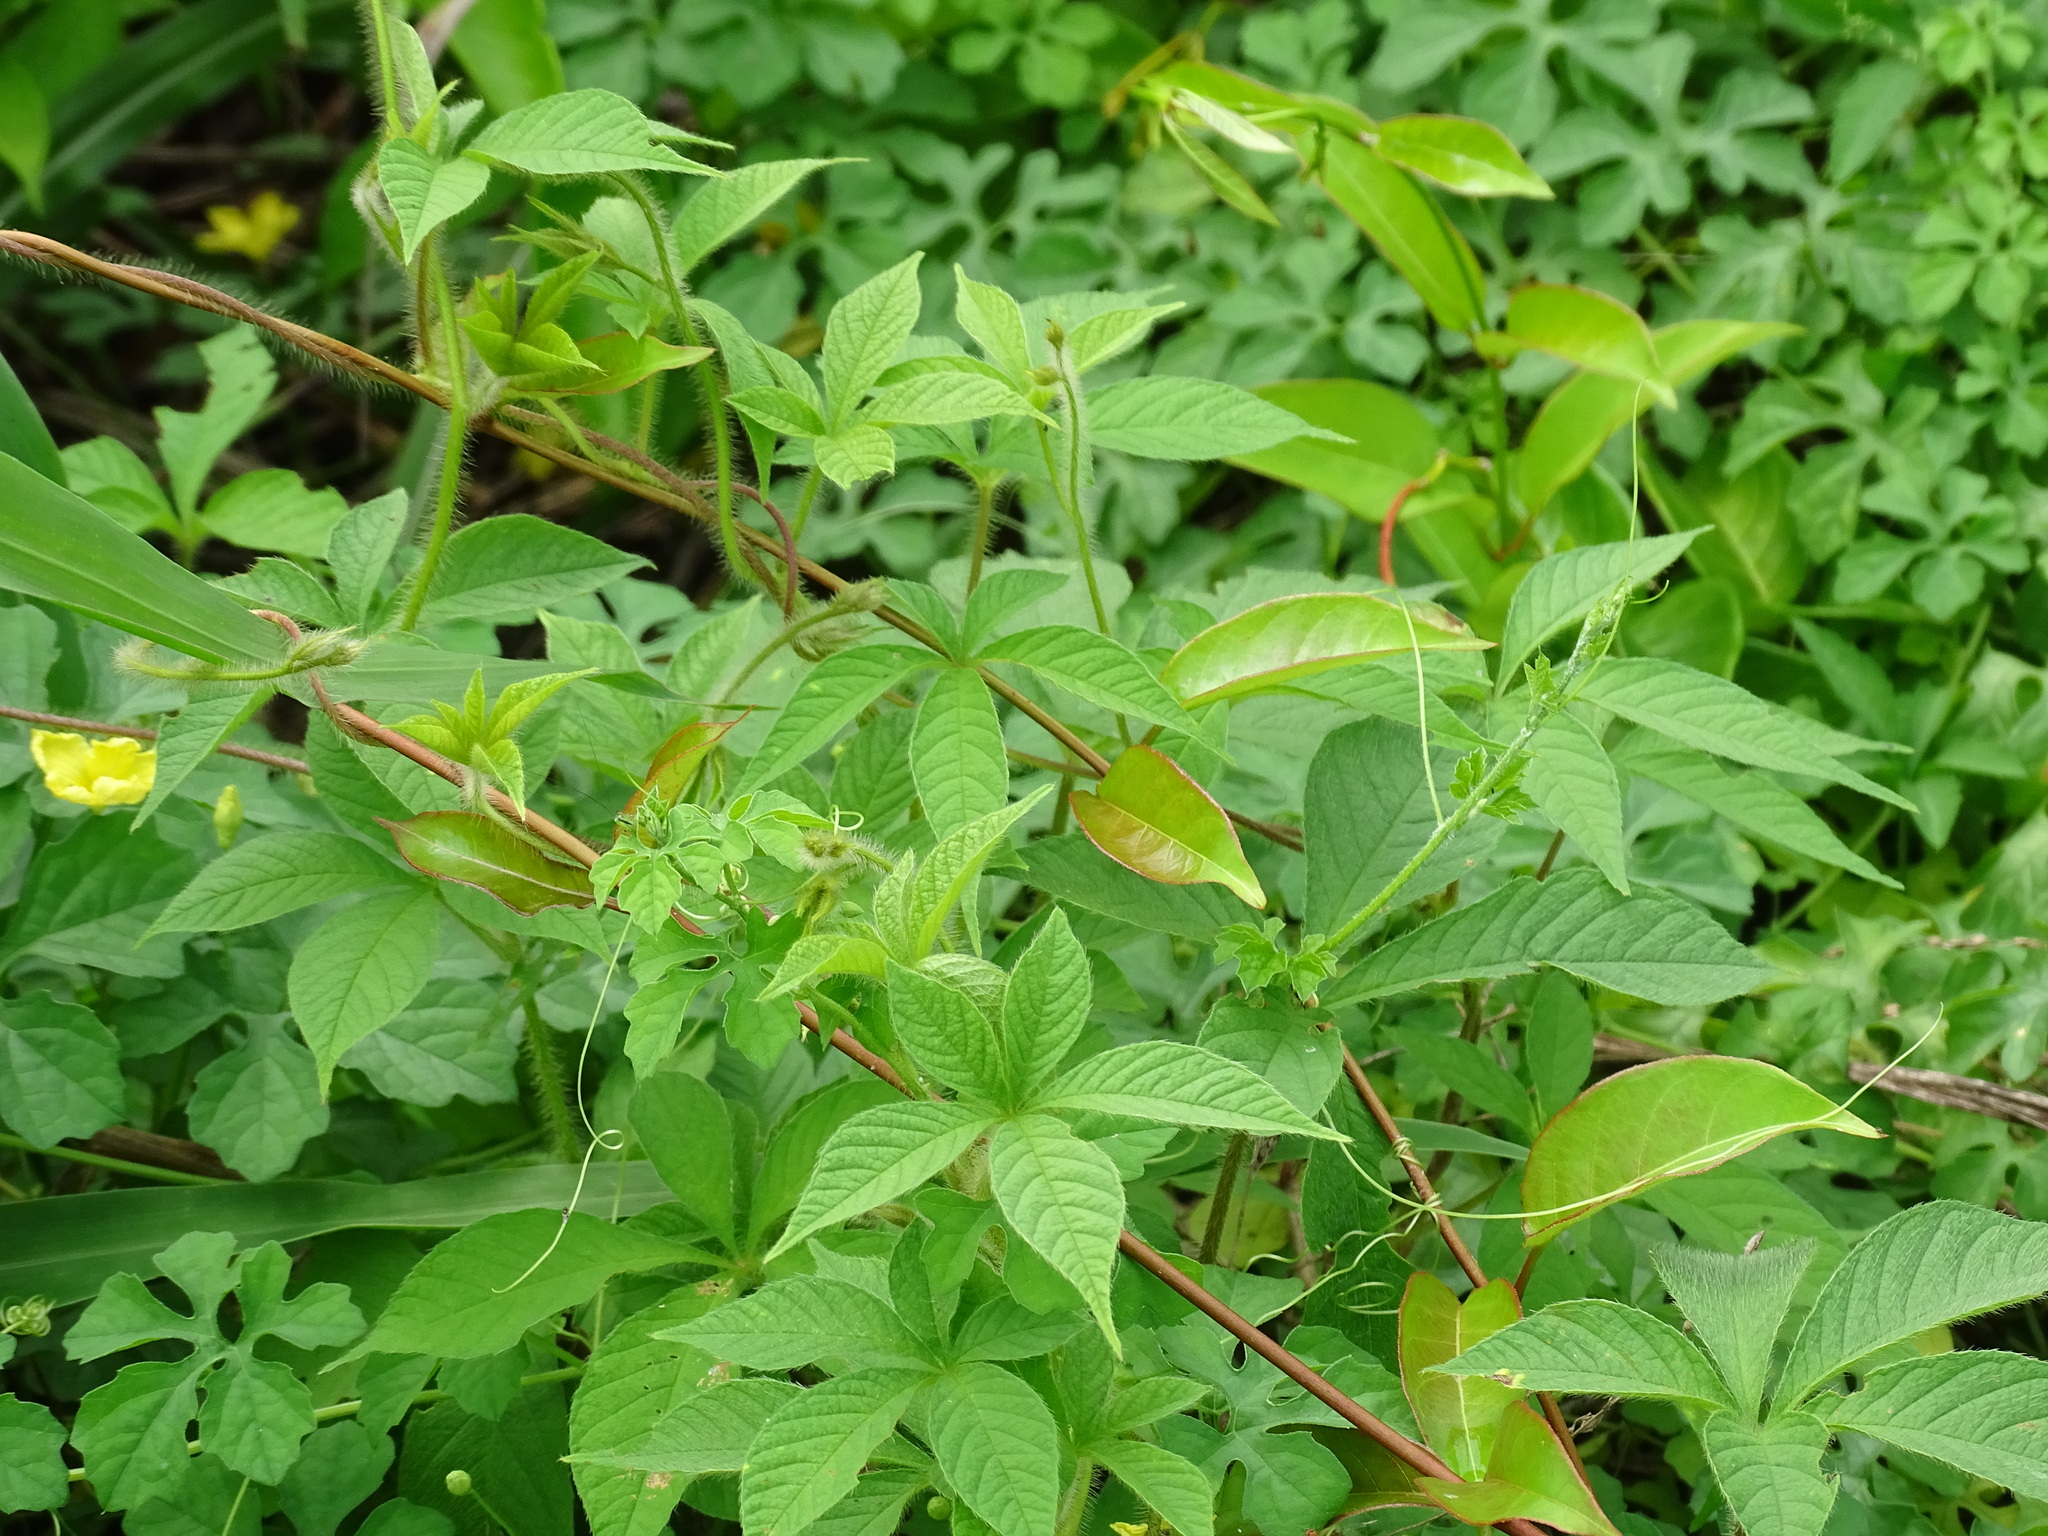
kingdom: Plantae
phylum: Tracheophyta
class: Magnoliopsida
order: Solanales
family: Convolvulaceae
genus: Distimake
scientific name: Distimake aegyptius
